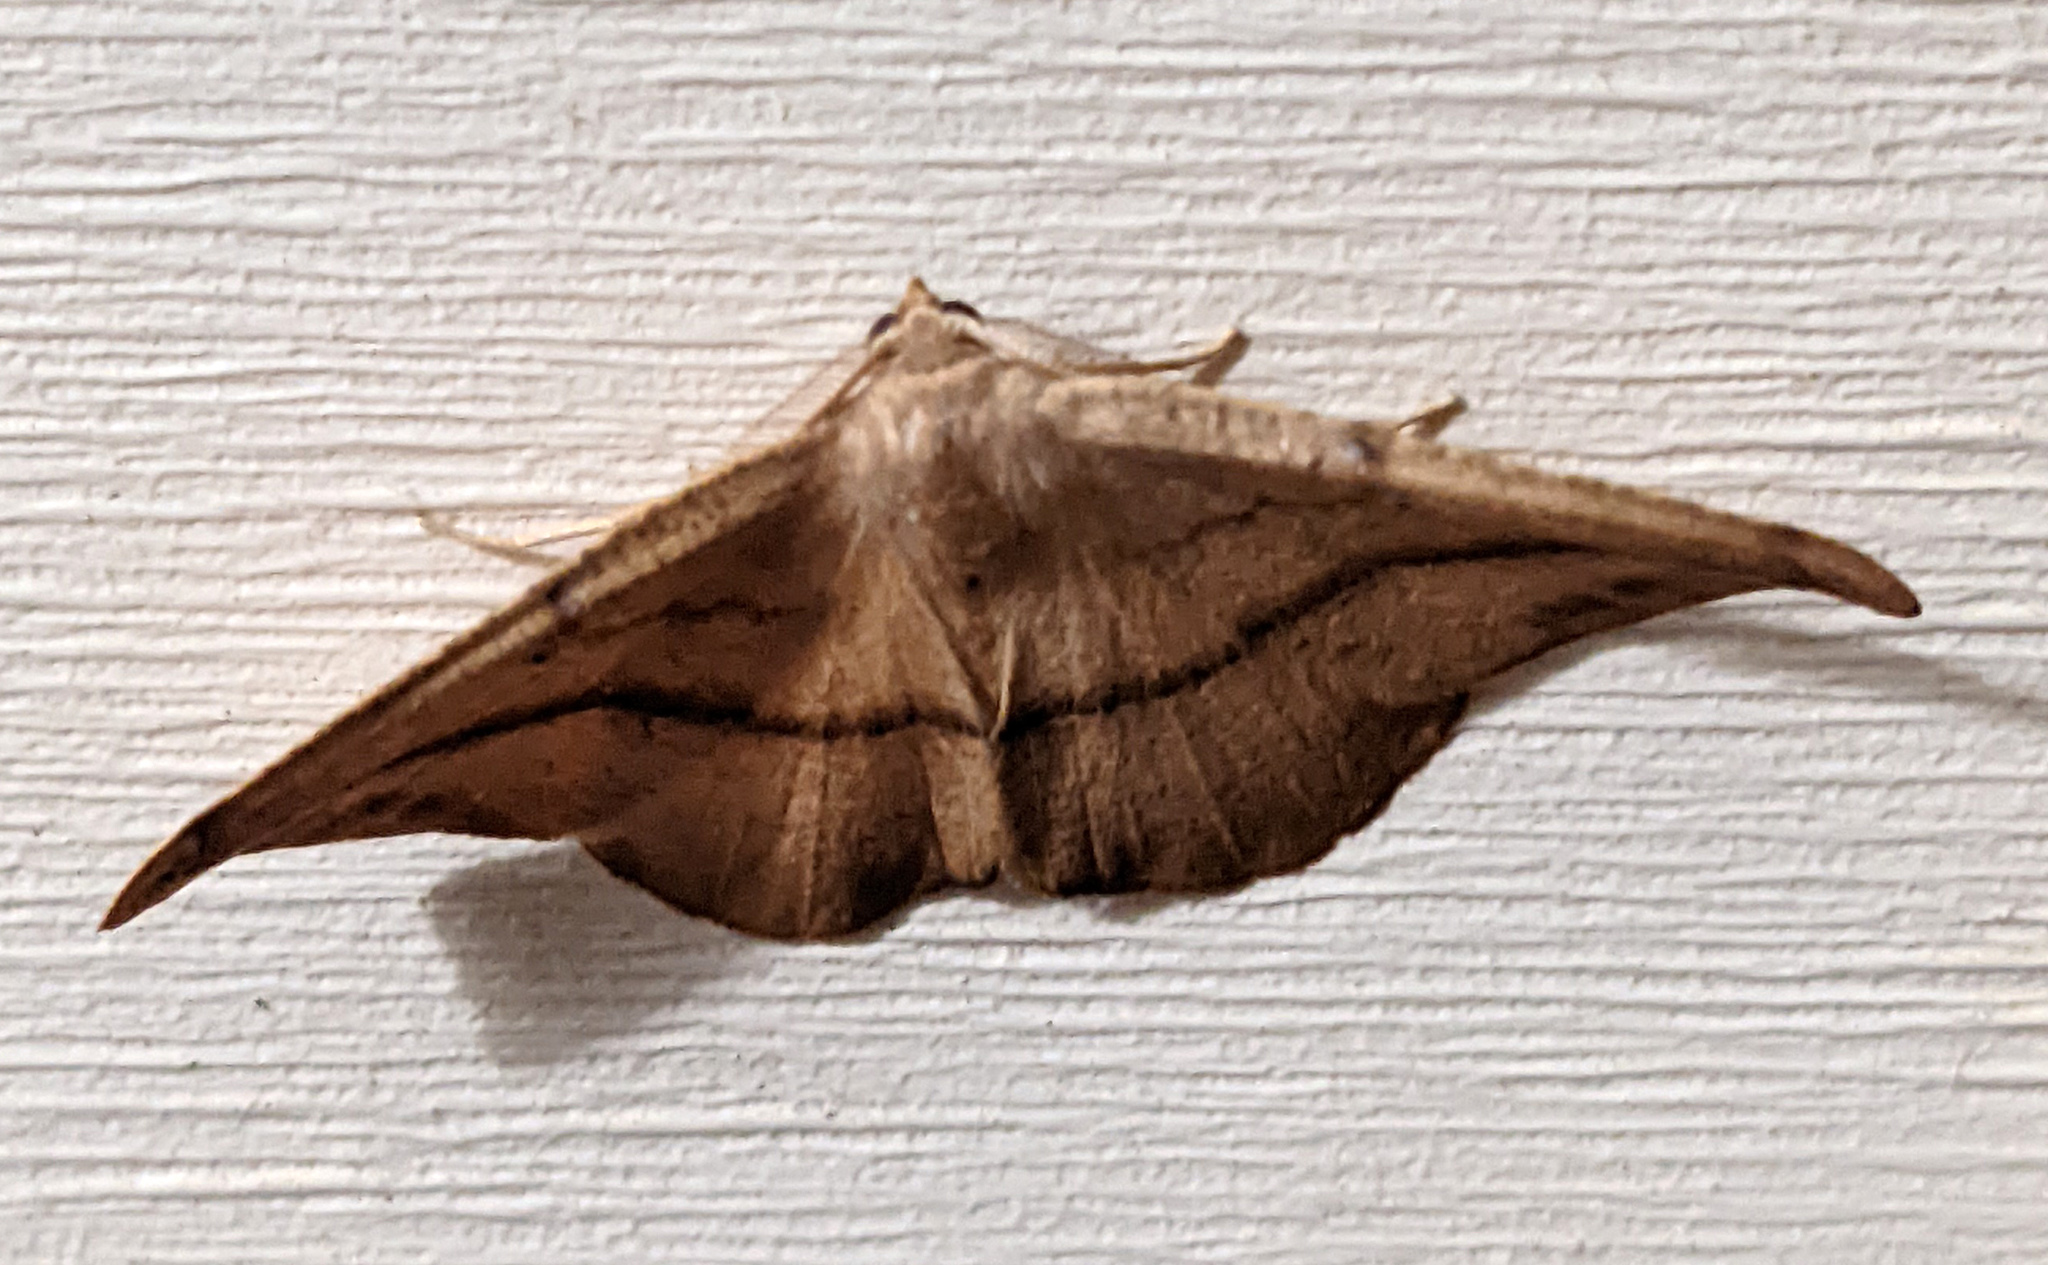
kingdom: Animalia
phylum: Arthropoda
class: Insecta
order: Lepidoptera
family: Geometridae
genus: Patalene
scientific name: Patalene olyzonaria
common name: Juniper geometer moth
